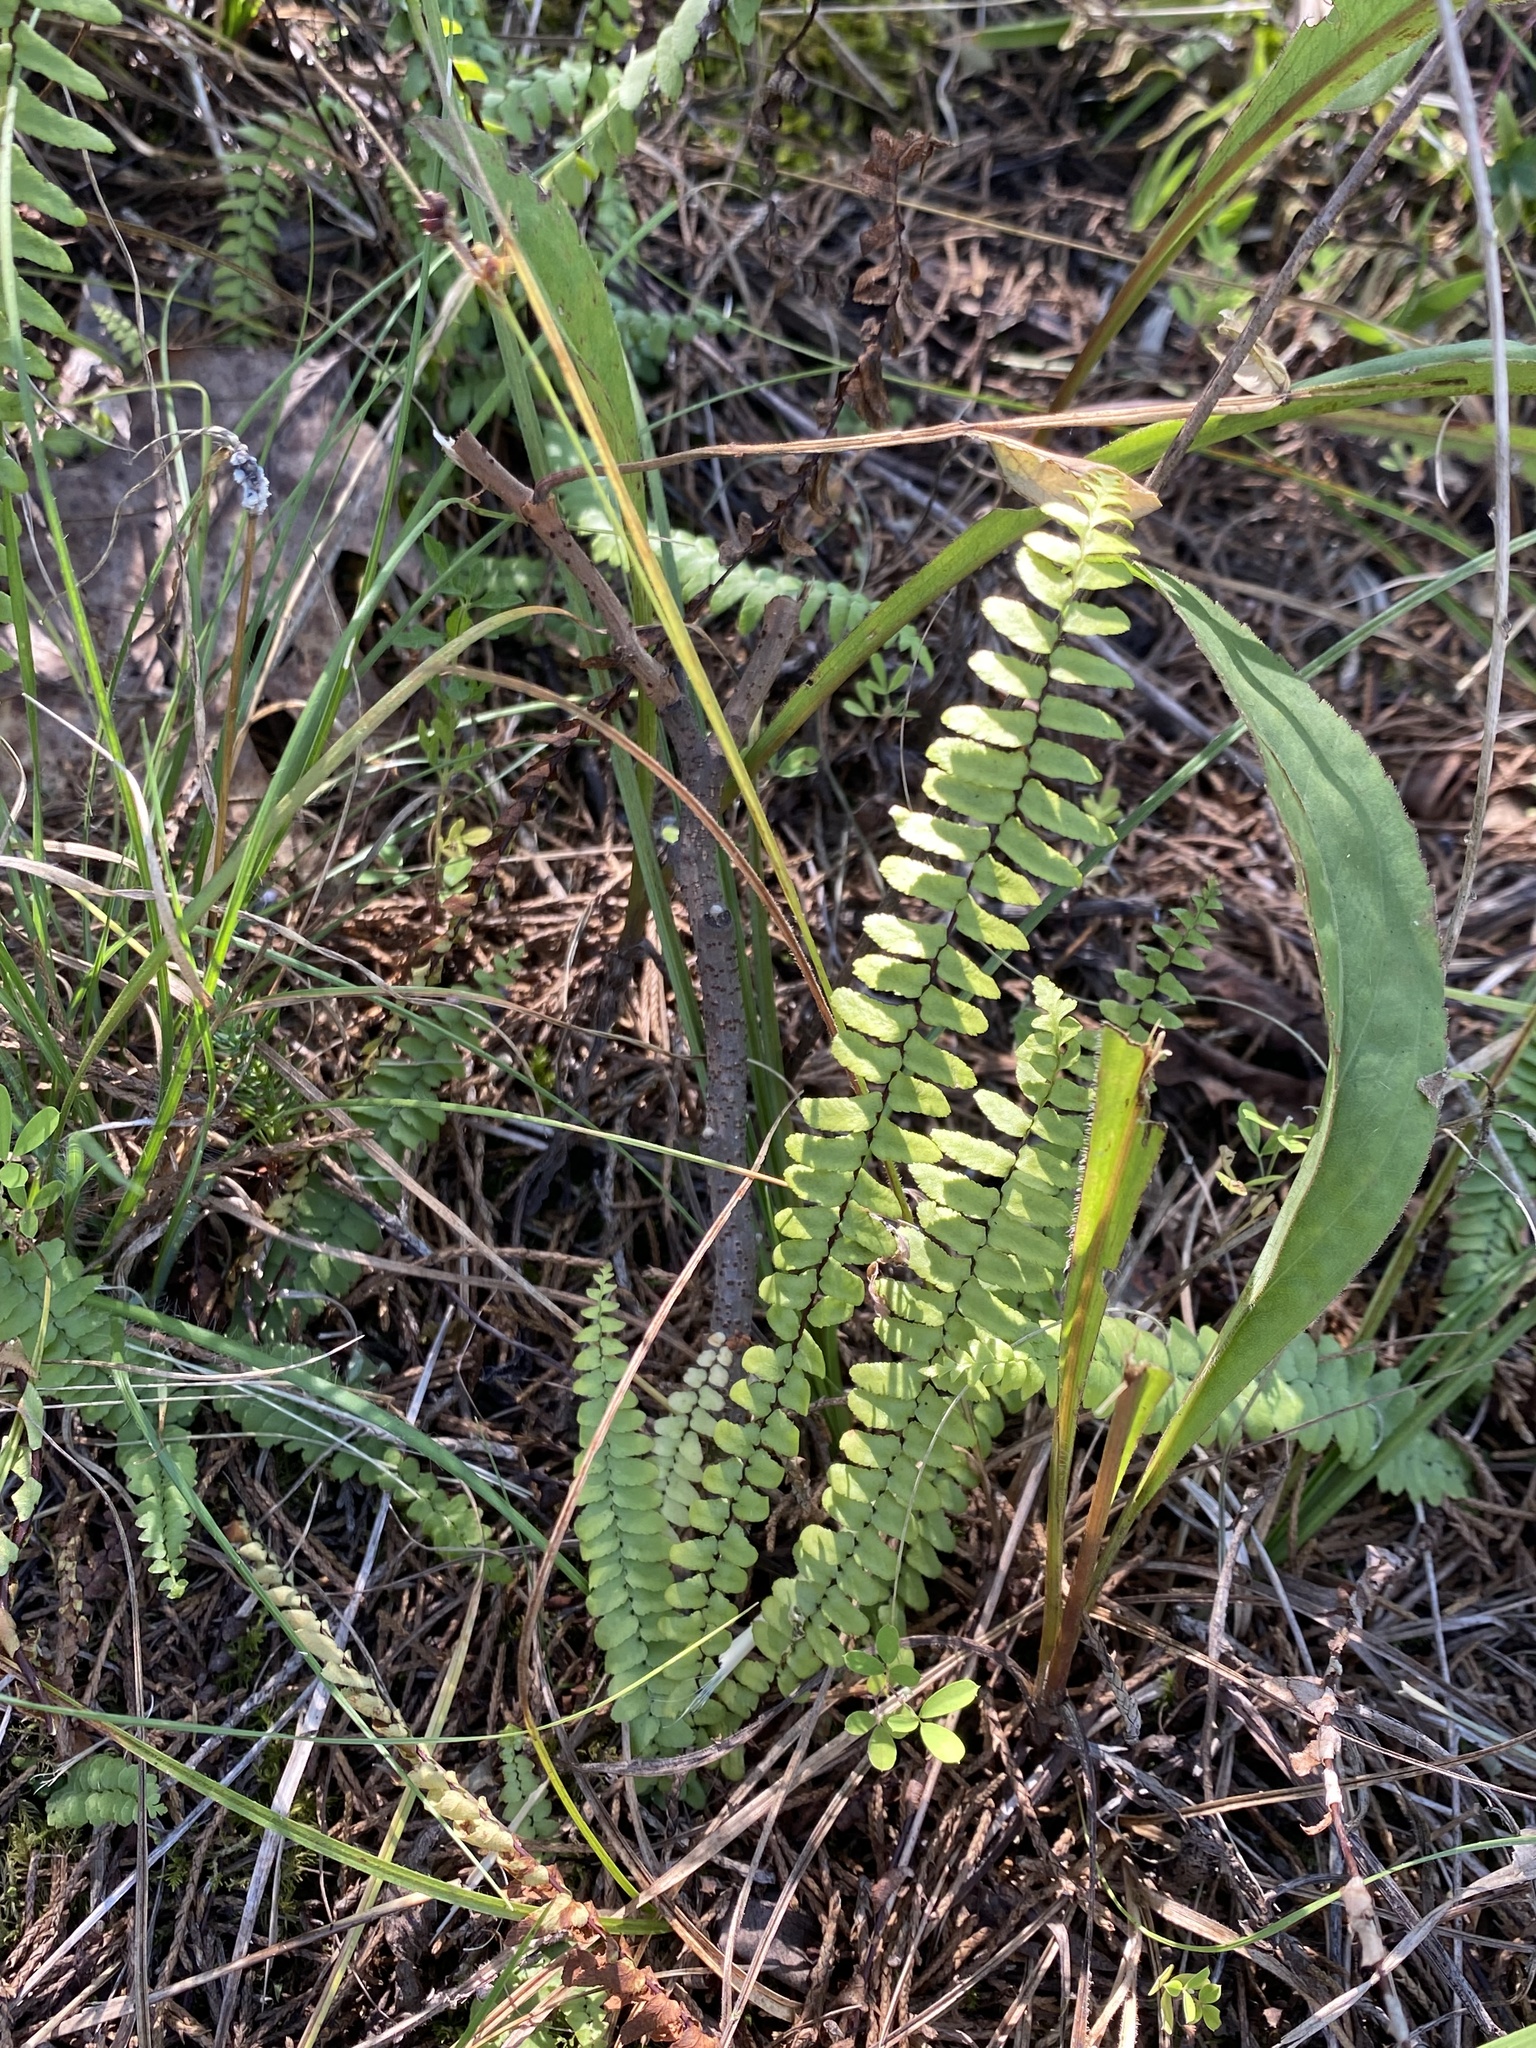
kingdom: Plantae
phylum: Tracheophyta
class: Polypodiopsida
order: Polypodiales
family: Aspleniaceae
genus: Asplenium
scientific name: Asplenium platyneuron
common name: Ebony spleenwort
